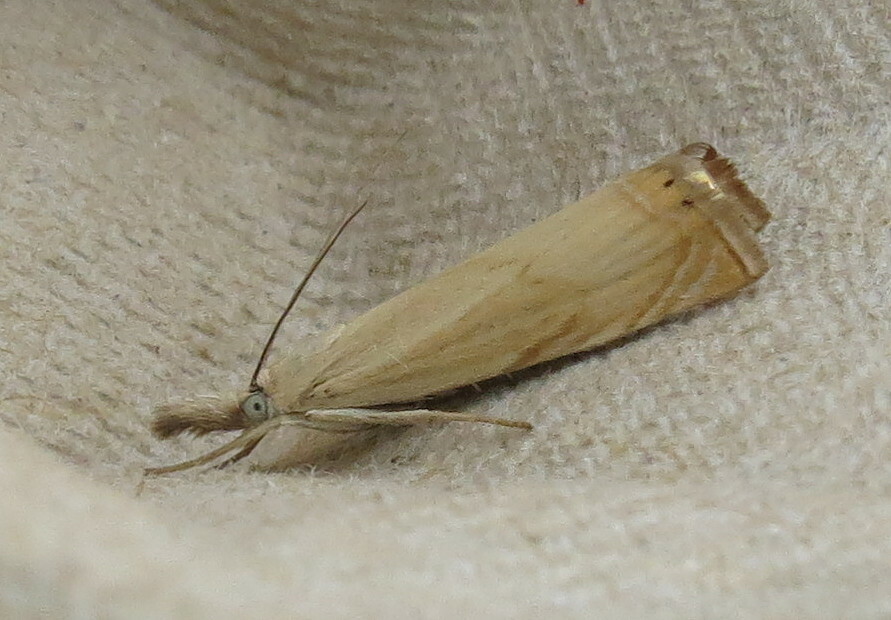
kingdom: Animalia
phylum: Arthropoda
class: Insecta
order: Lepidoptera
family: Crambidae
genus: Chrysoteuchia
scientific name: Chrysoteuchia culmella
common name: Garden grass-veneer
